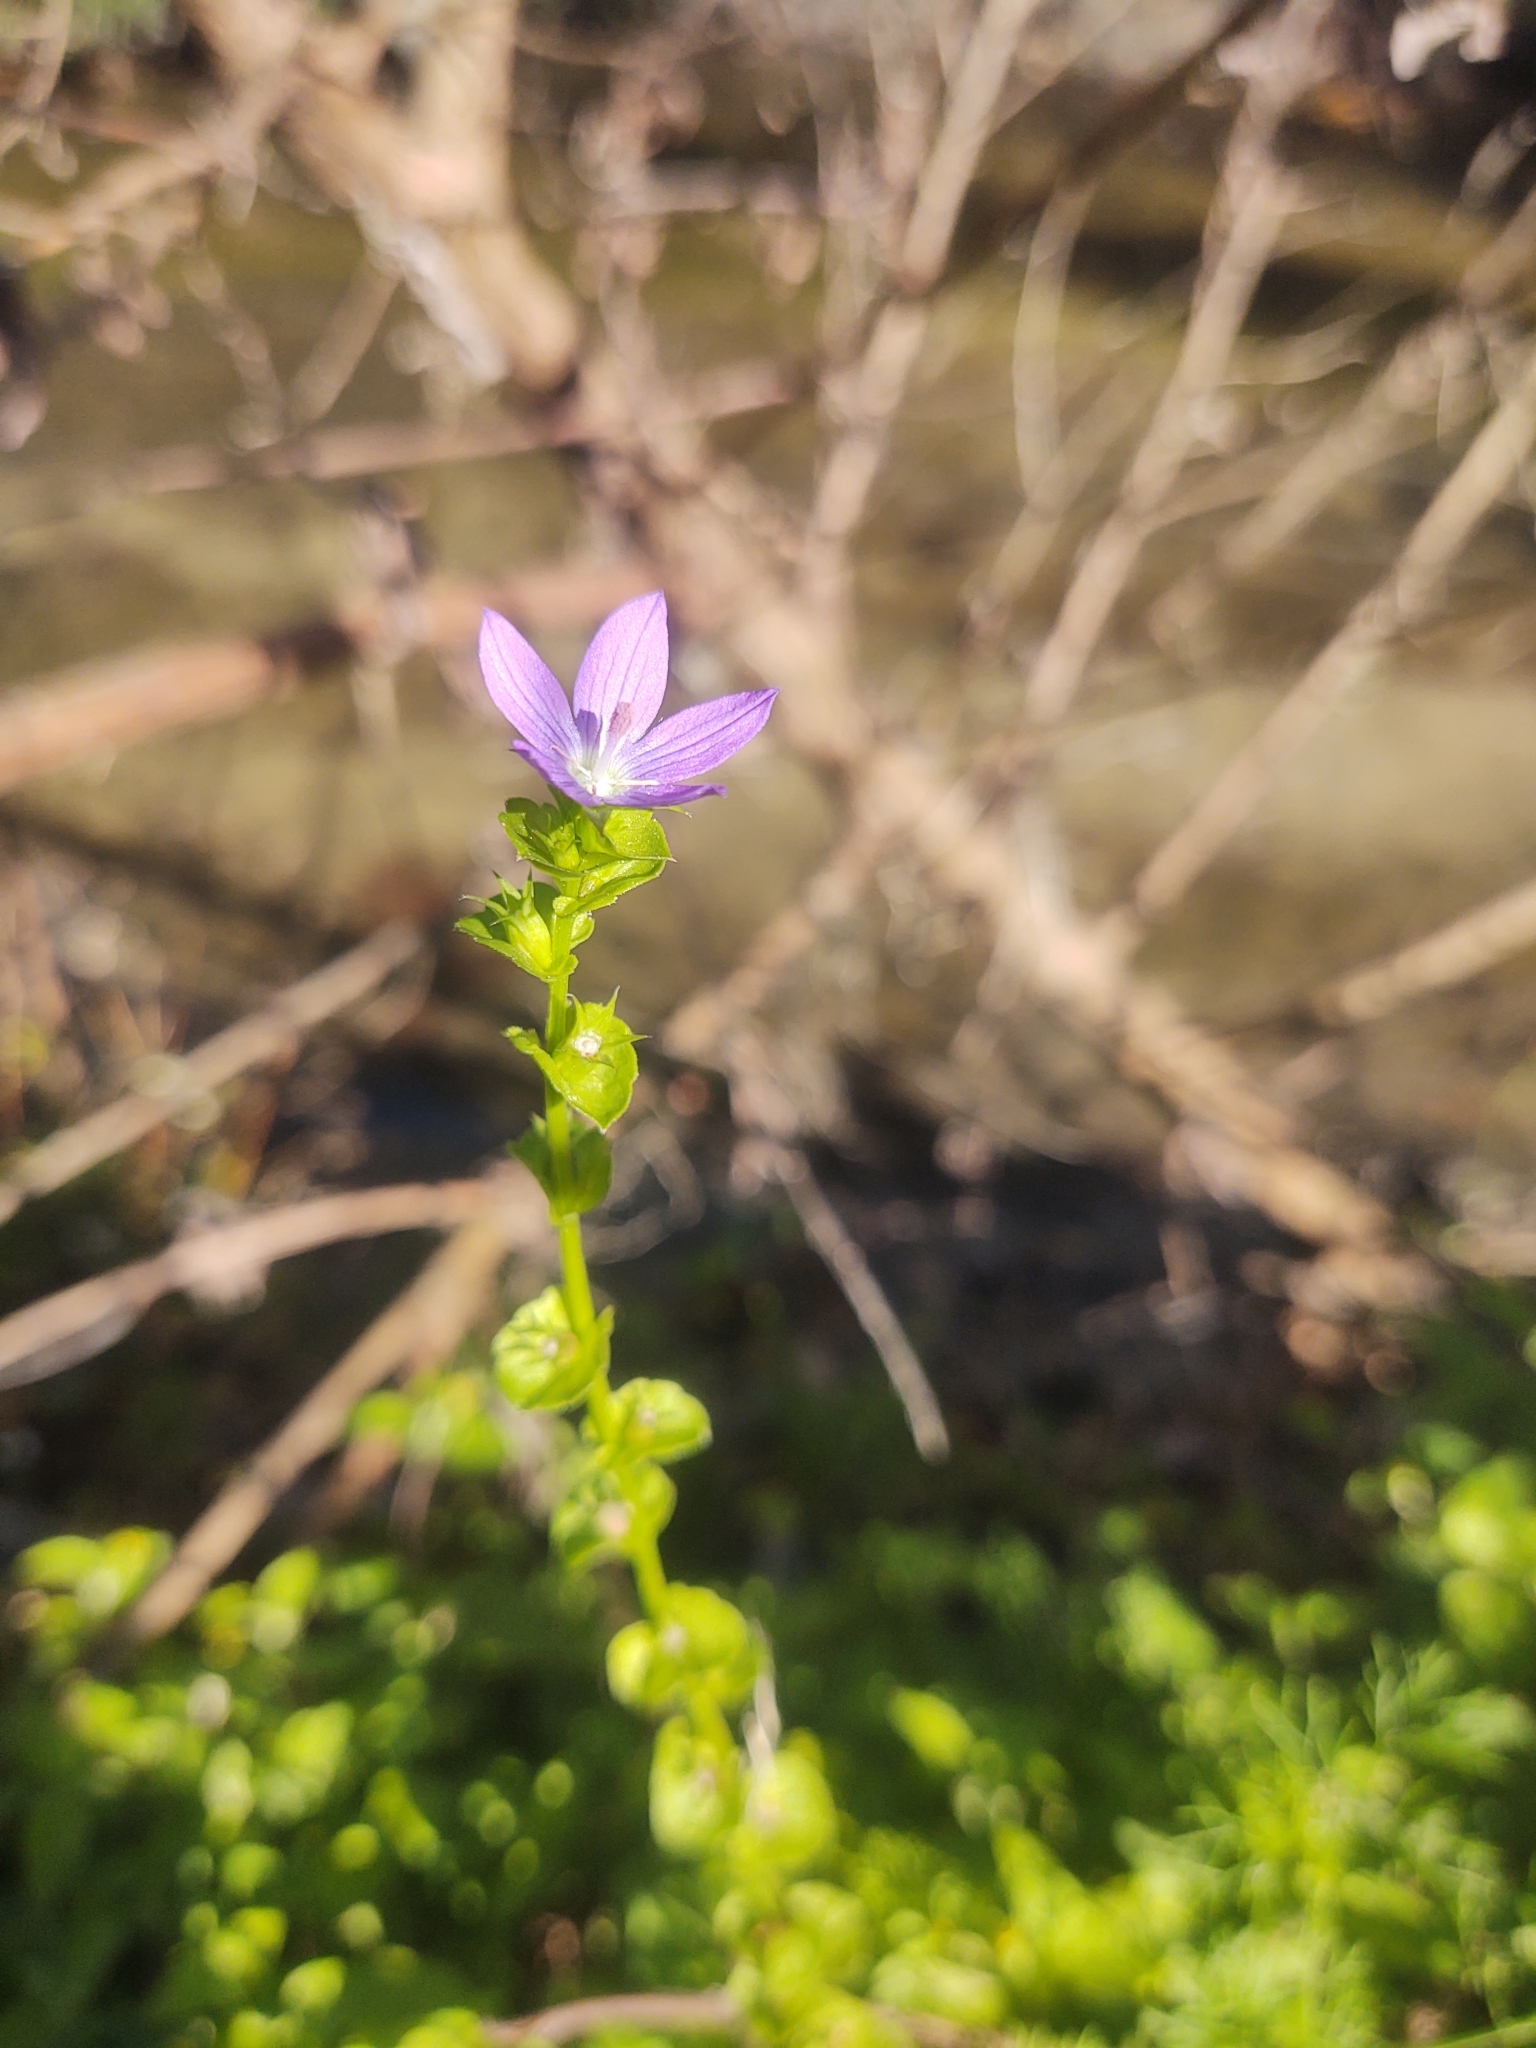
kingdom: Plantae
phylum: Tracheophyta
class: Magnoliopsida
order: Asterales
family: Campanulaceae
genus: Triodanis
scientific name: Triodanis perfoliata
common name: Clasping venus' looking-glass
